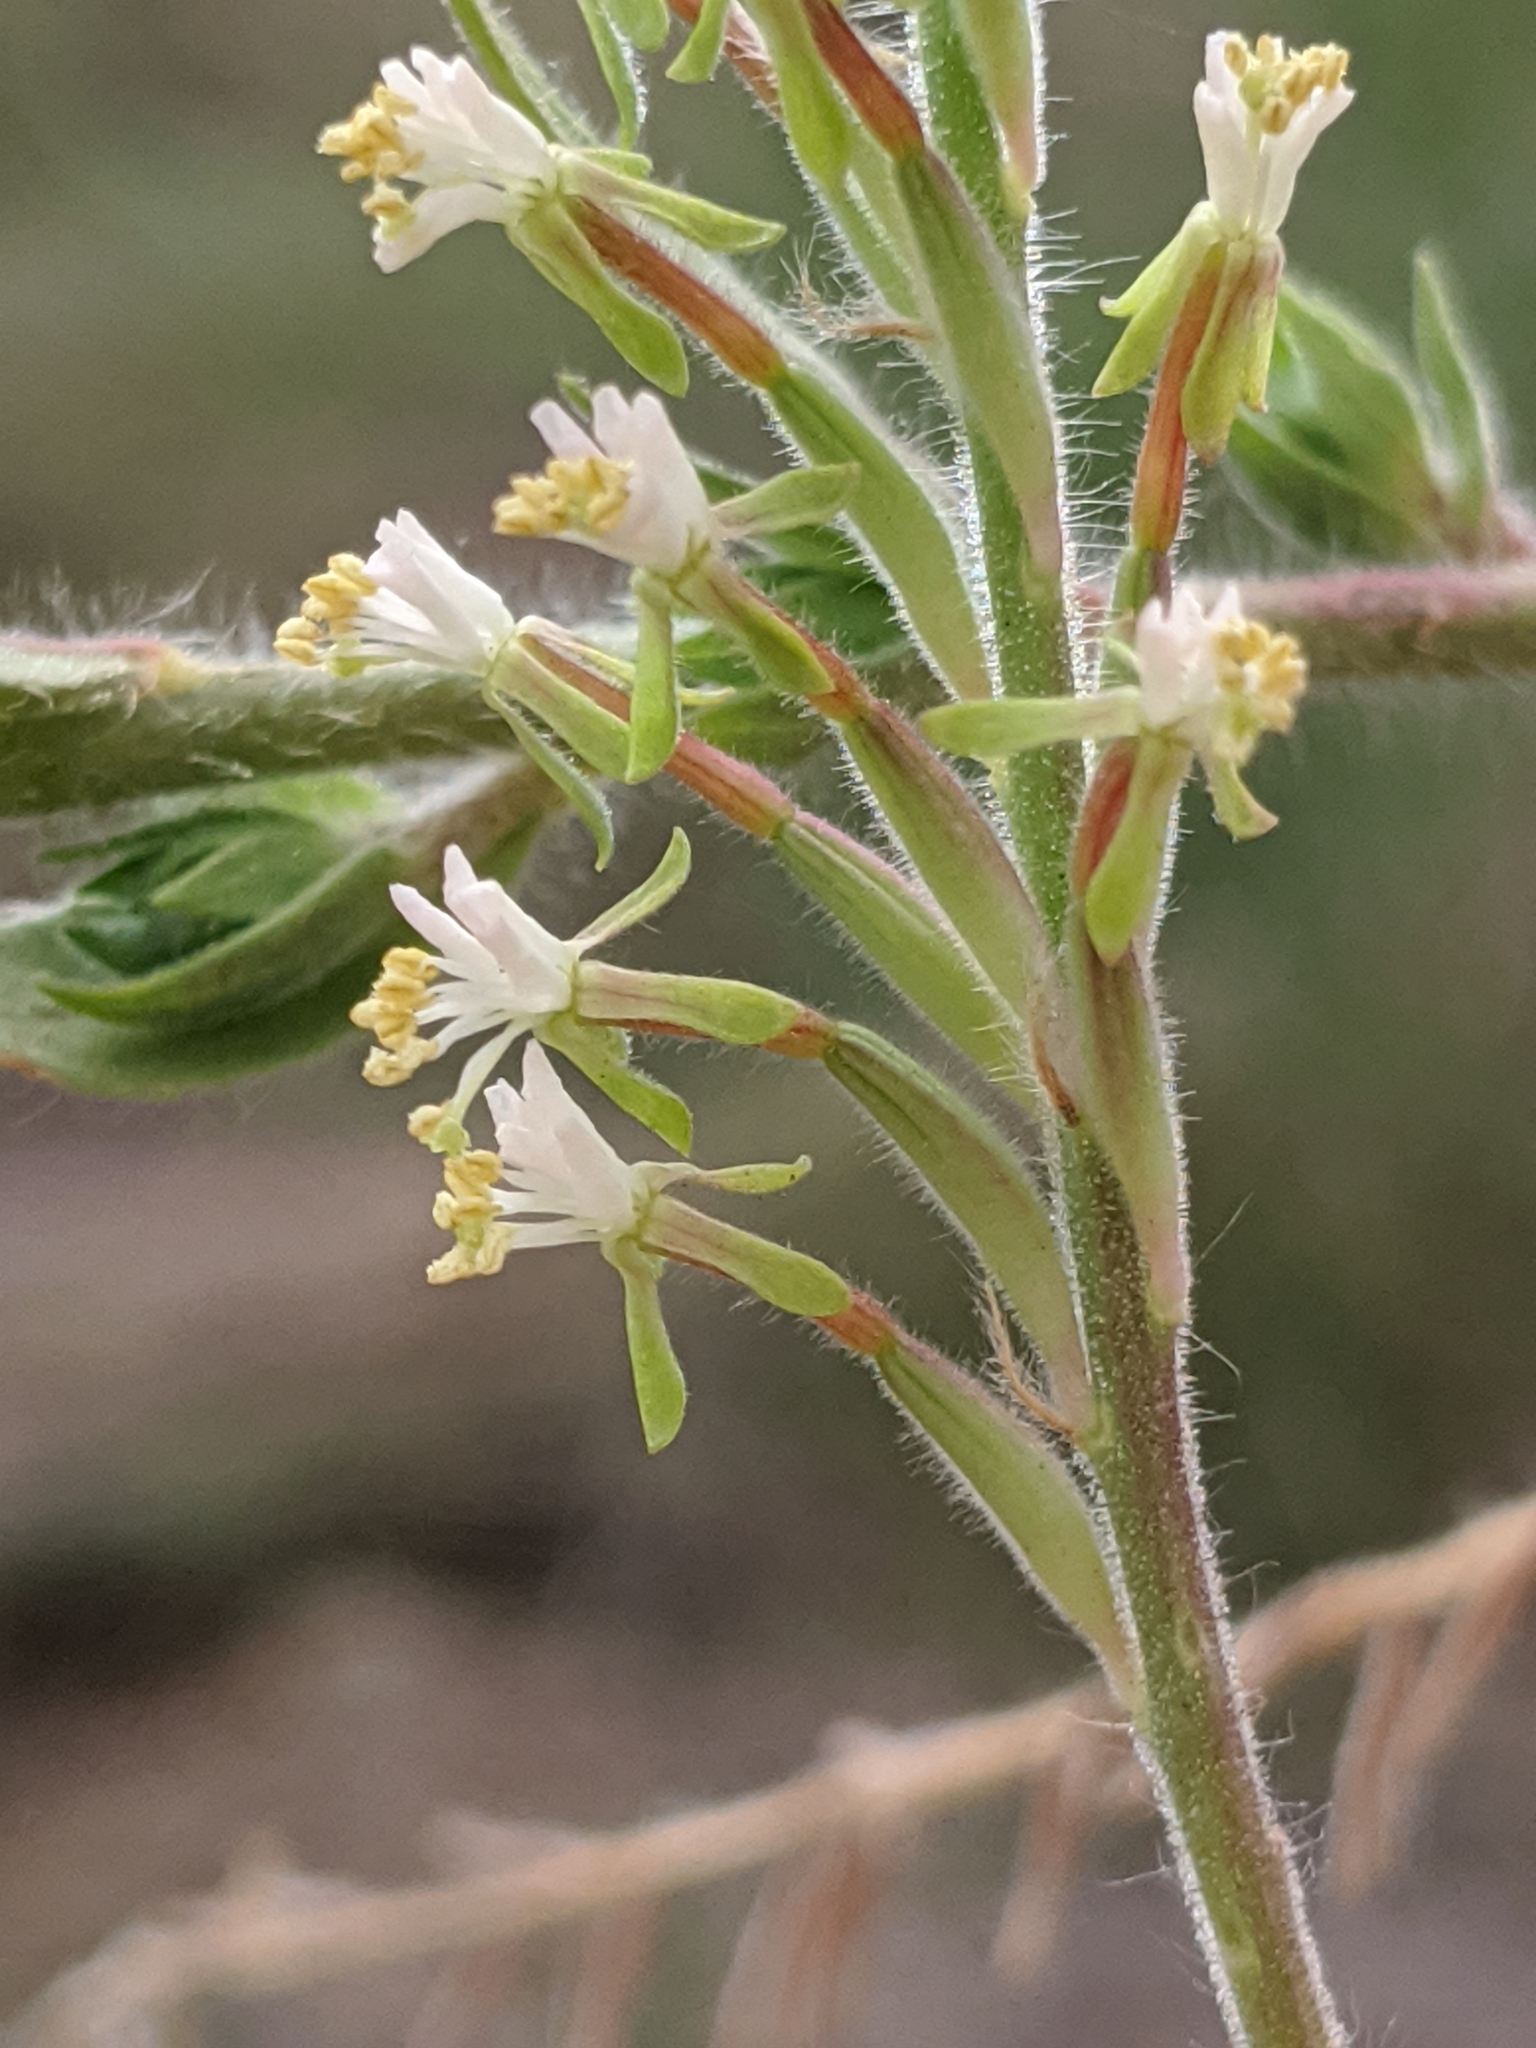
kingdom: Plantae
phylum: Tracheophyta
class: Magnoliopsida
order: Myrtales
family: Onagraceae
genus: Oenothera
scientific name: Oenothera curtiflora
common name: Velvetweed
